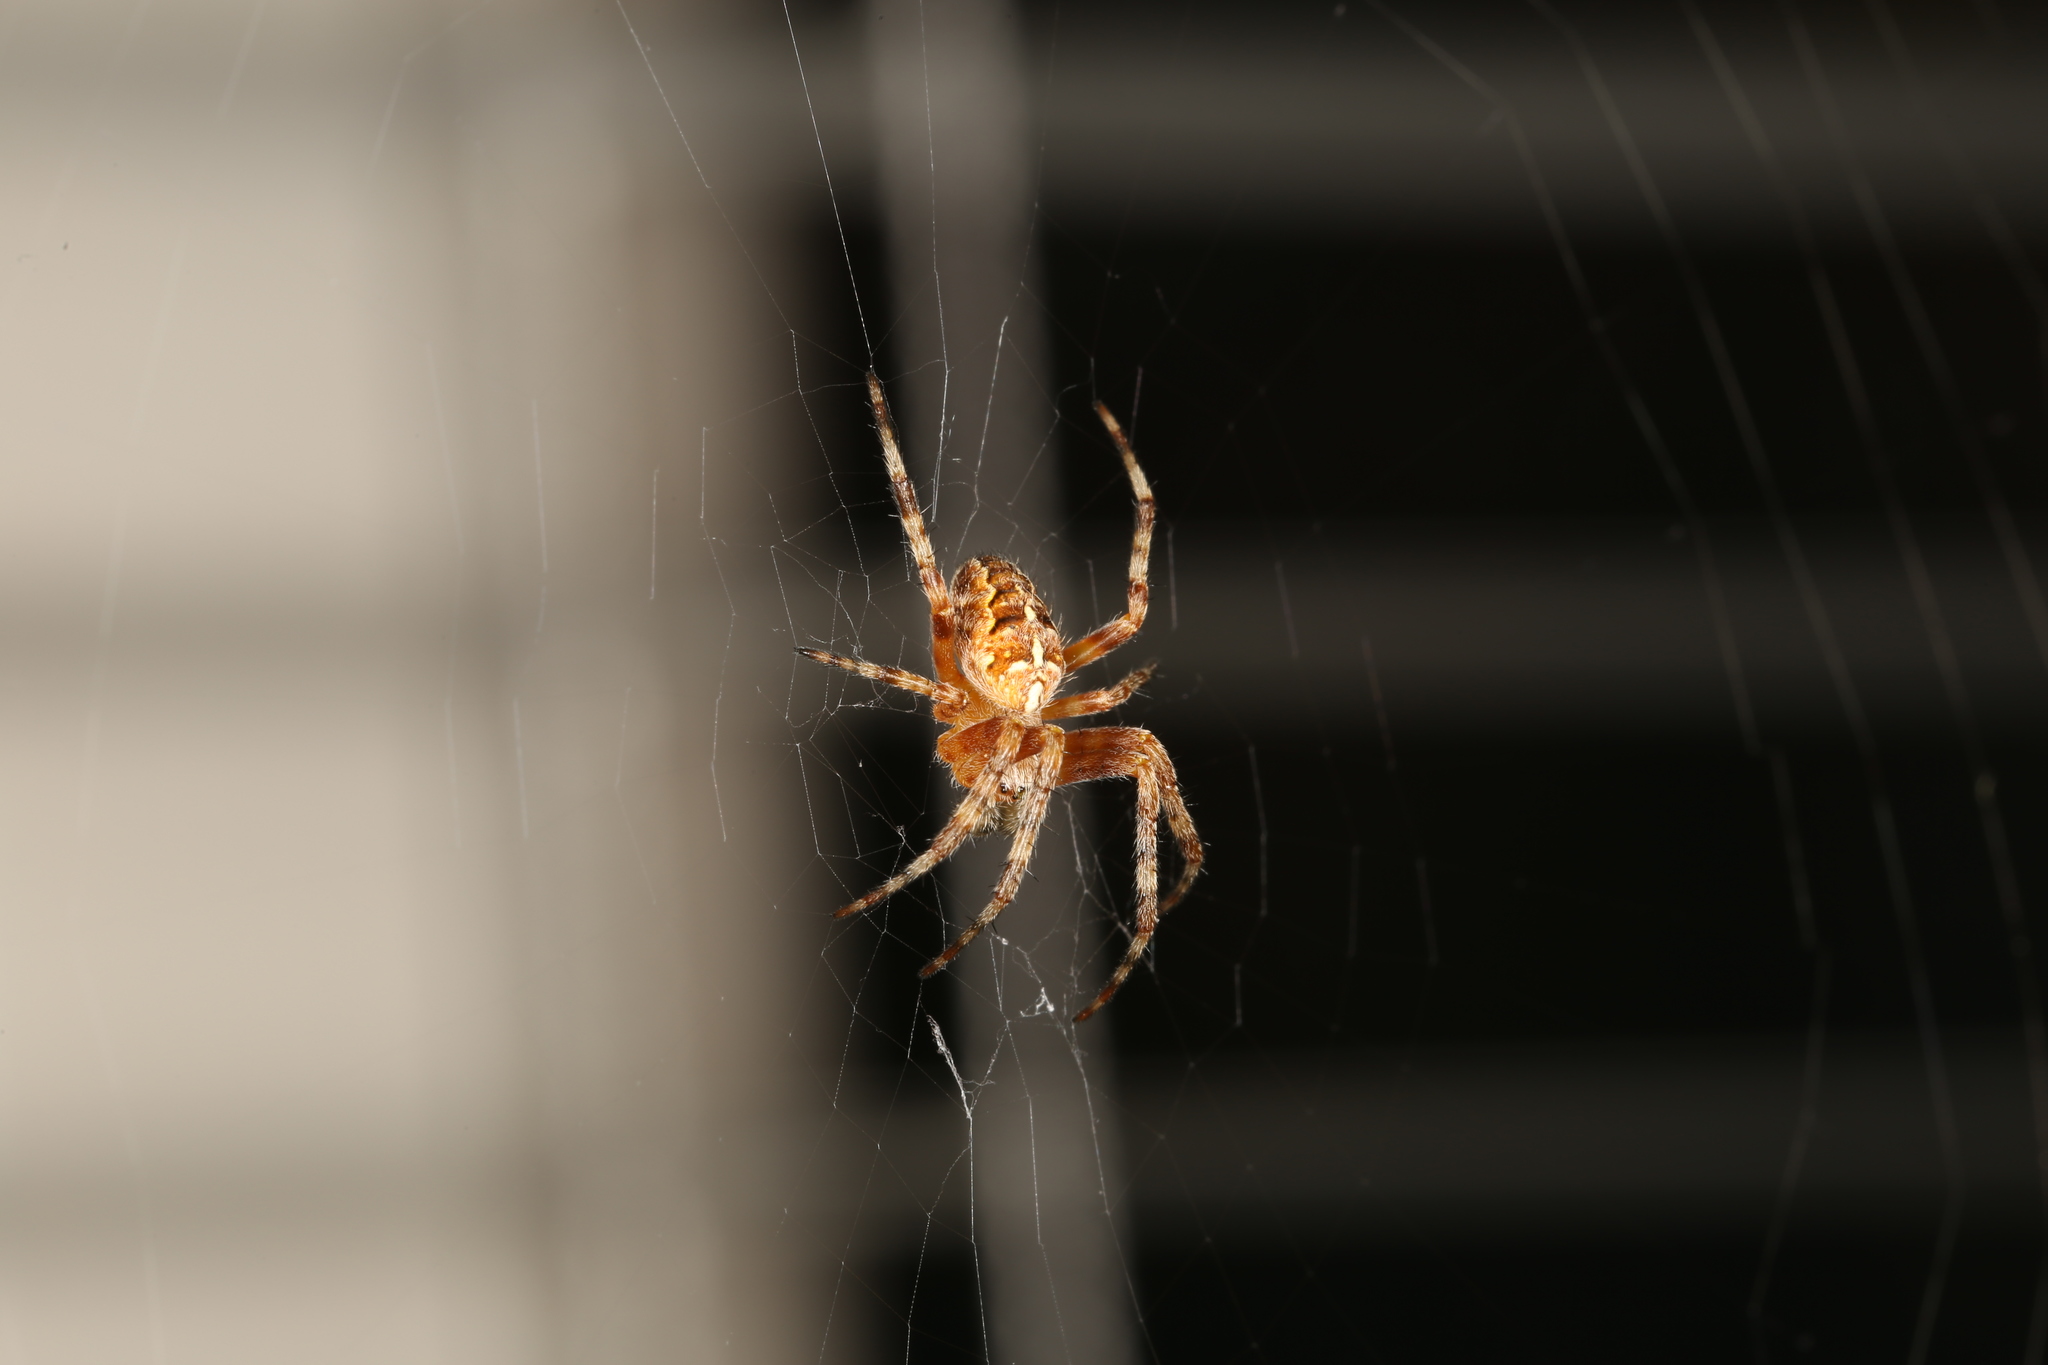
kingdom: Animalia
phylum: Arthropoda
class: Arachnida
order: Araneae
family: Araneidae
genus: Araneus
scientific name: Araneus diadematus
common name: Cross orbweaver
